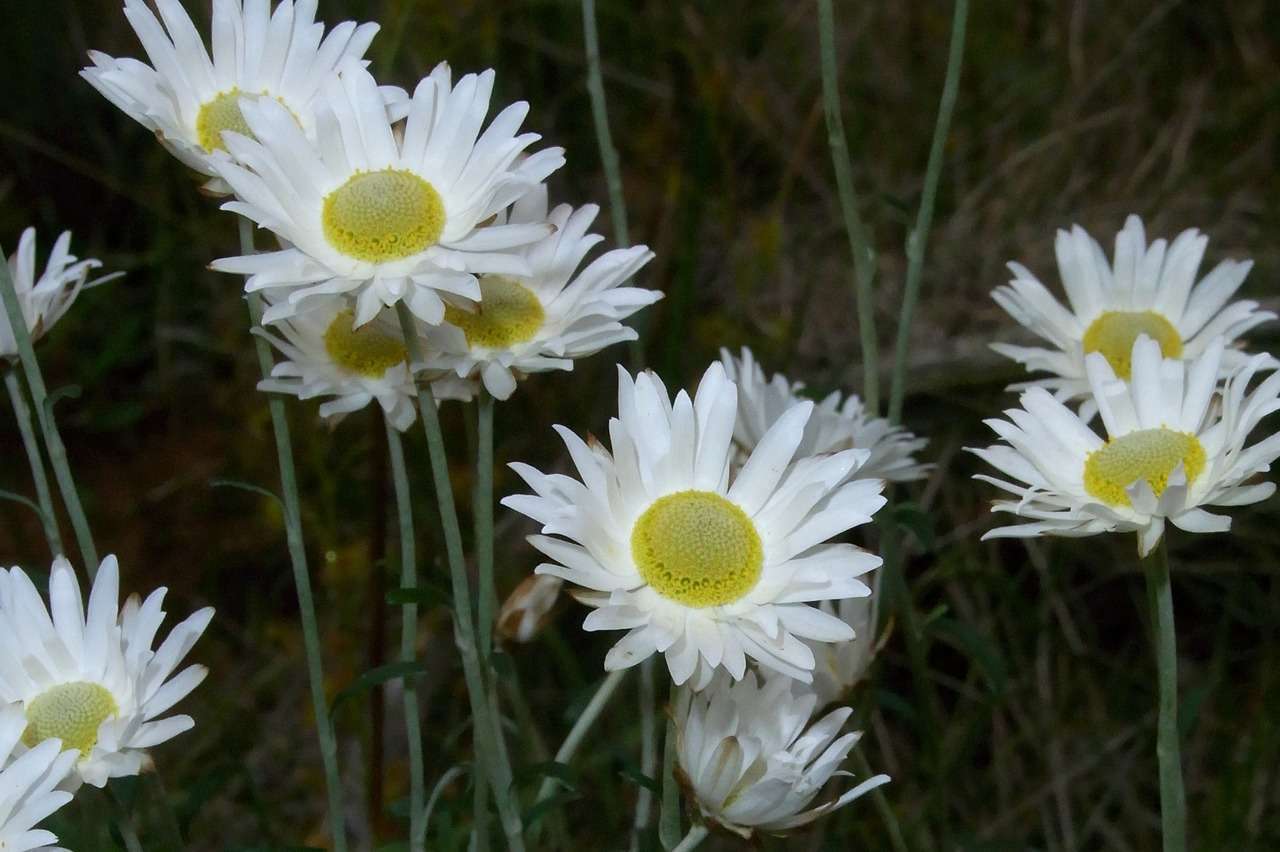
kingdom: Plantae
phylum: Tracheophyta
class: Magnoliopsida
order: Asterales
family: Asteraceae
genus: Argentipallium
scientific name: Argentipallium obtusifolium
